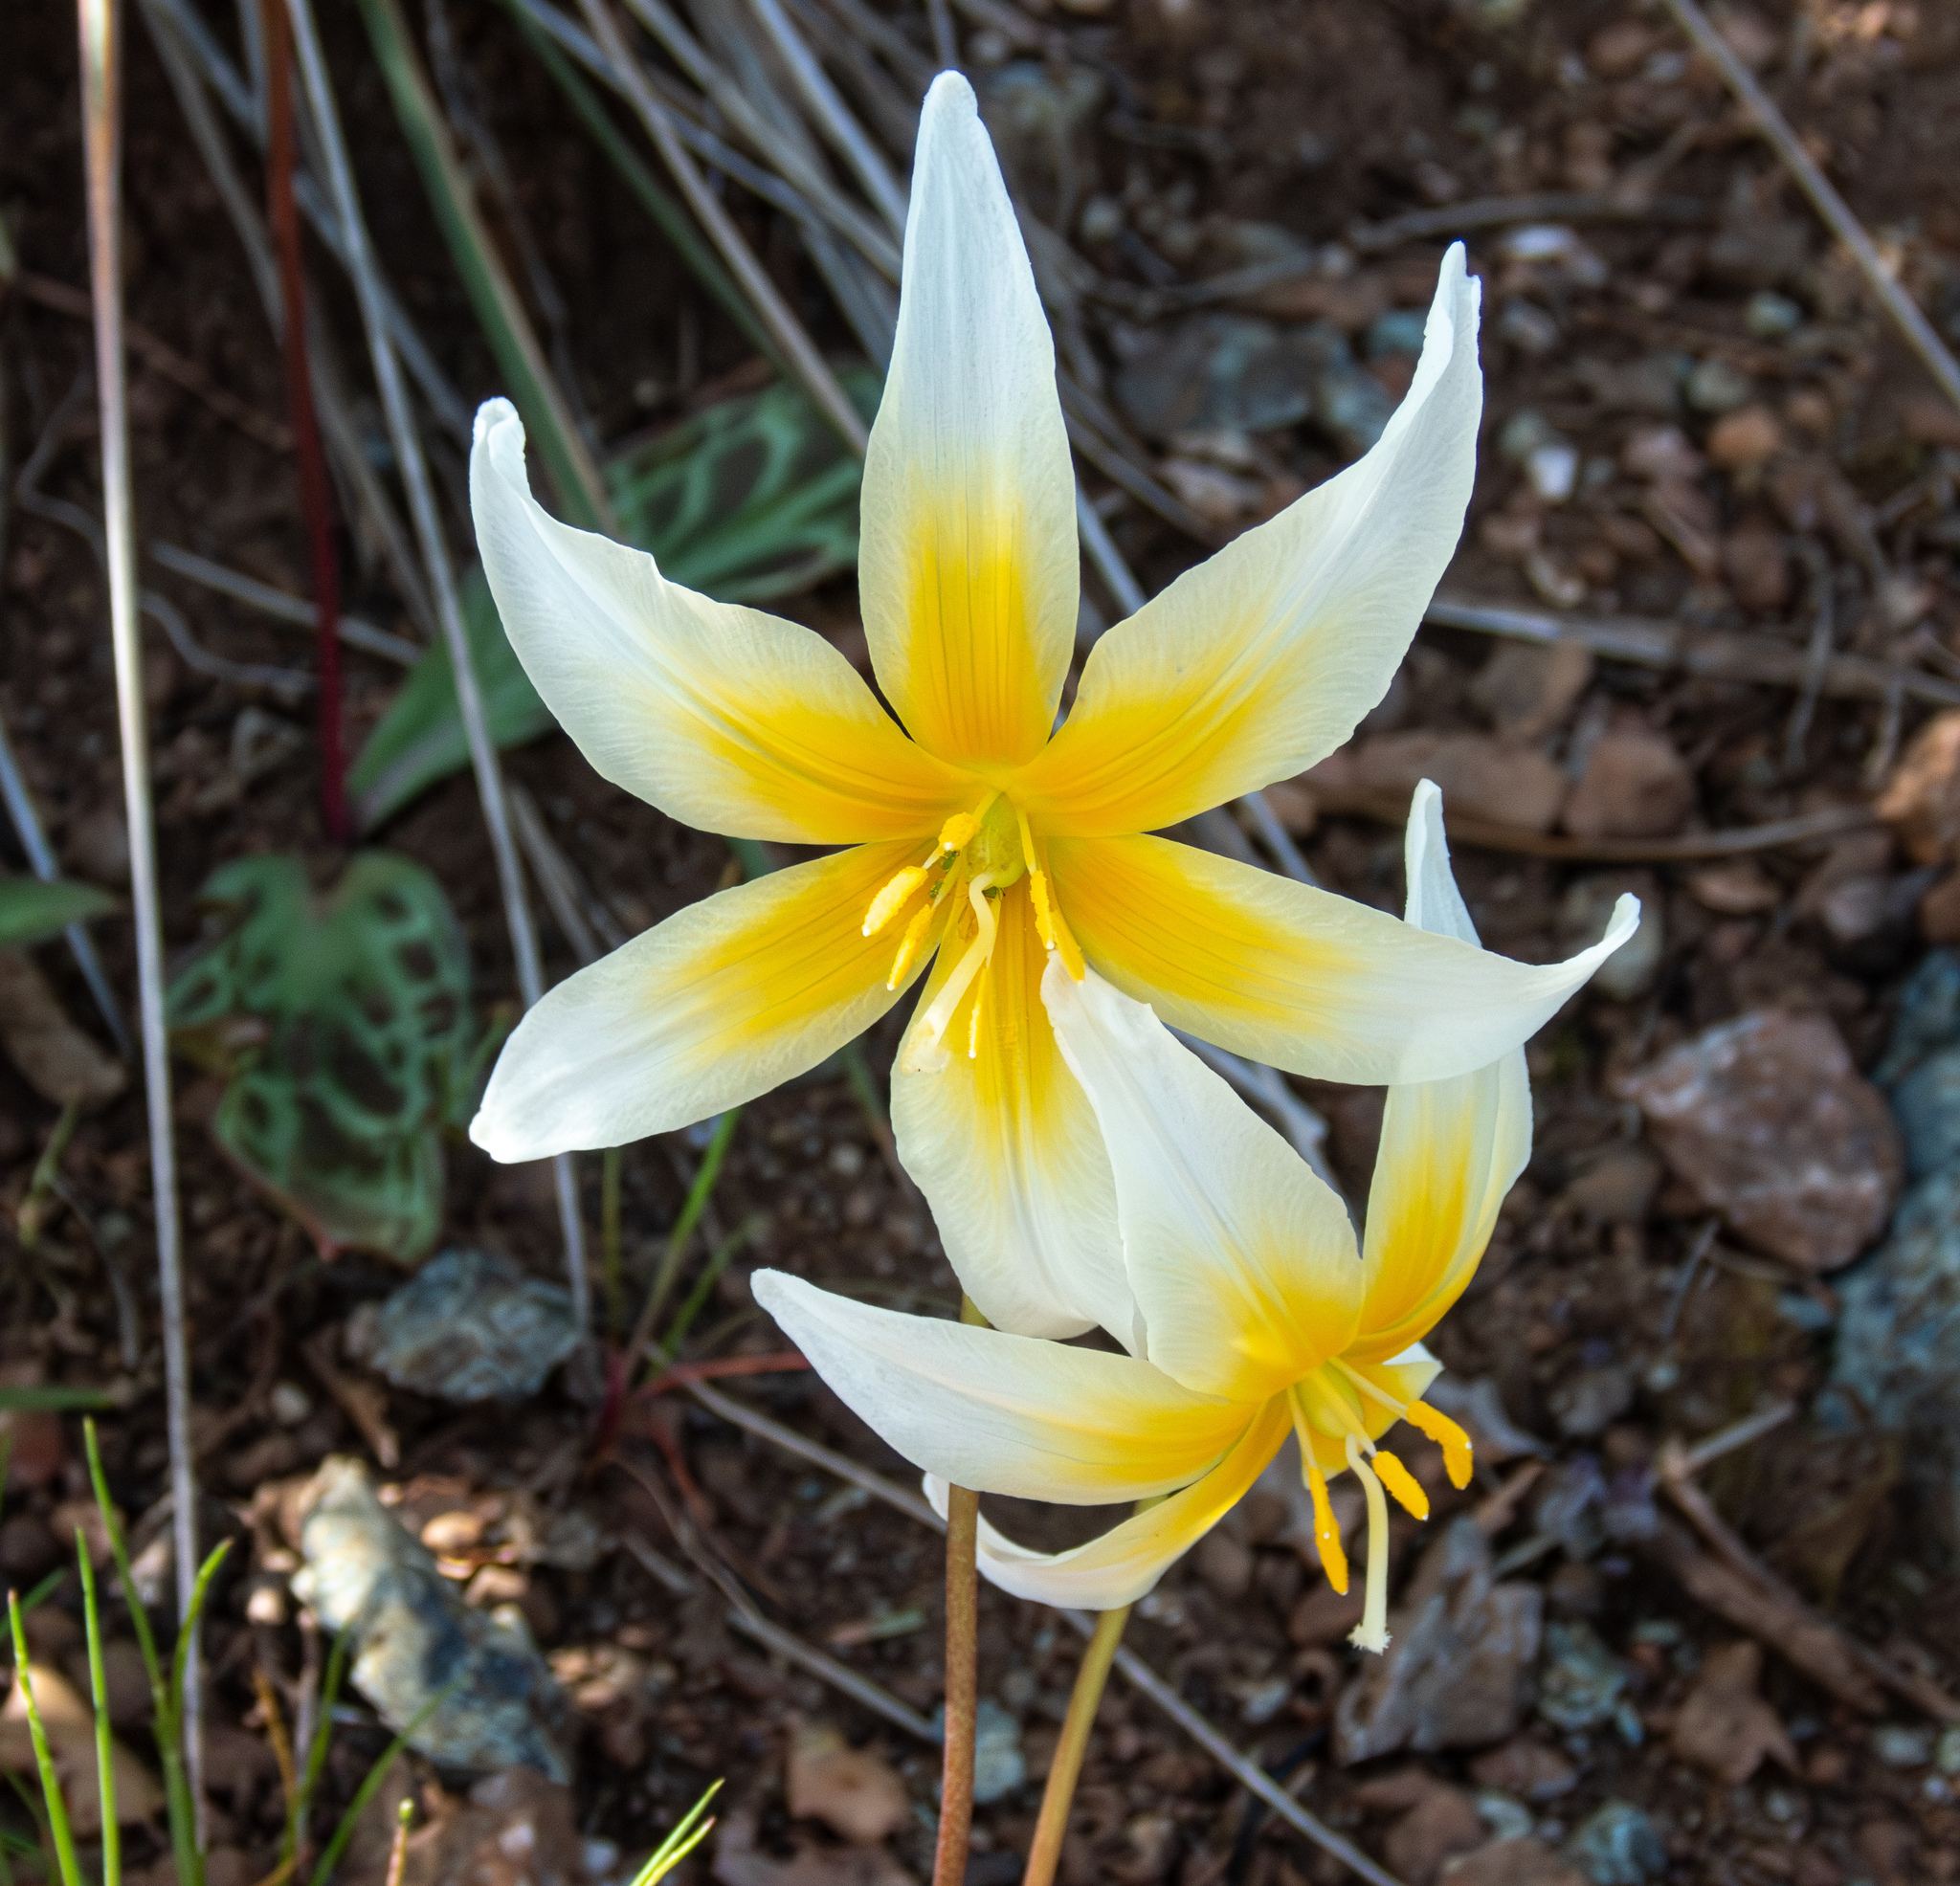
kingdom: Plantae
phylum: Tracheophyta
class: Liliopsida
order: Liliales
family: Liliaceae
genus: Erythronium
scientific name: Erythronium helenae
